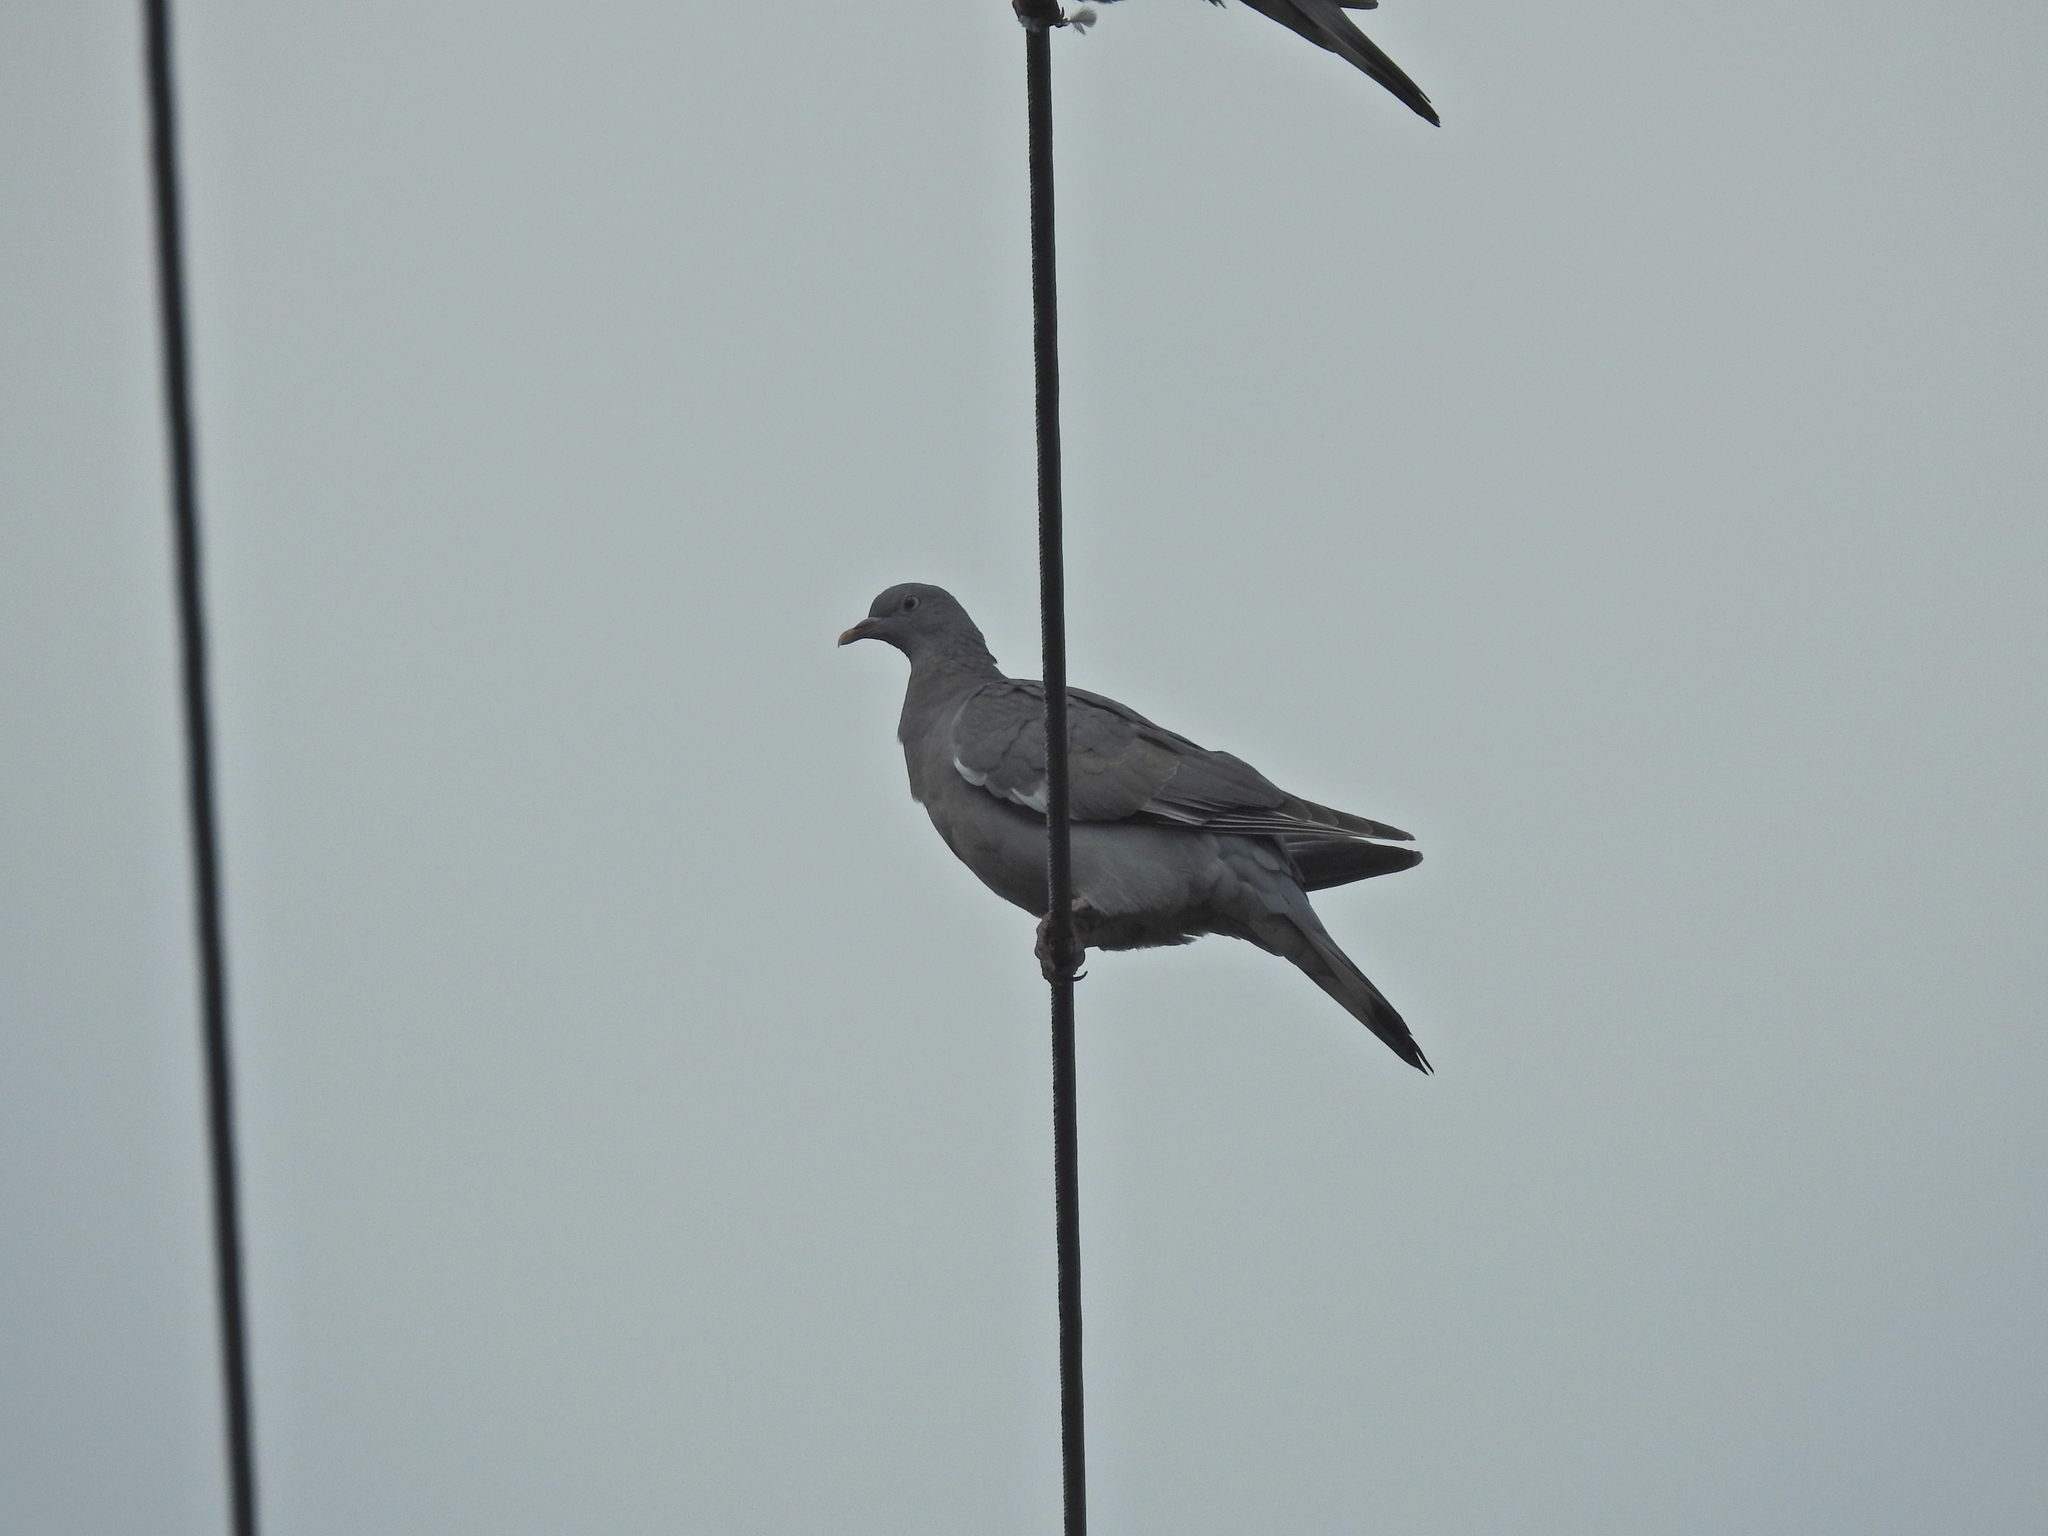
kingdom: Animalia
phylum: Chordata
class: Aves
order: Columbiformes
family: Columbidae
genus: Columba
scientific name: Columba palumbus
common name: Common wood pigeon
